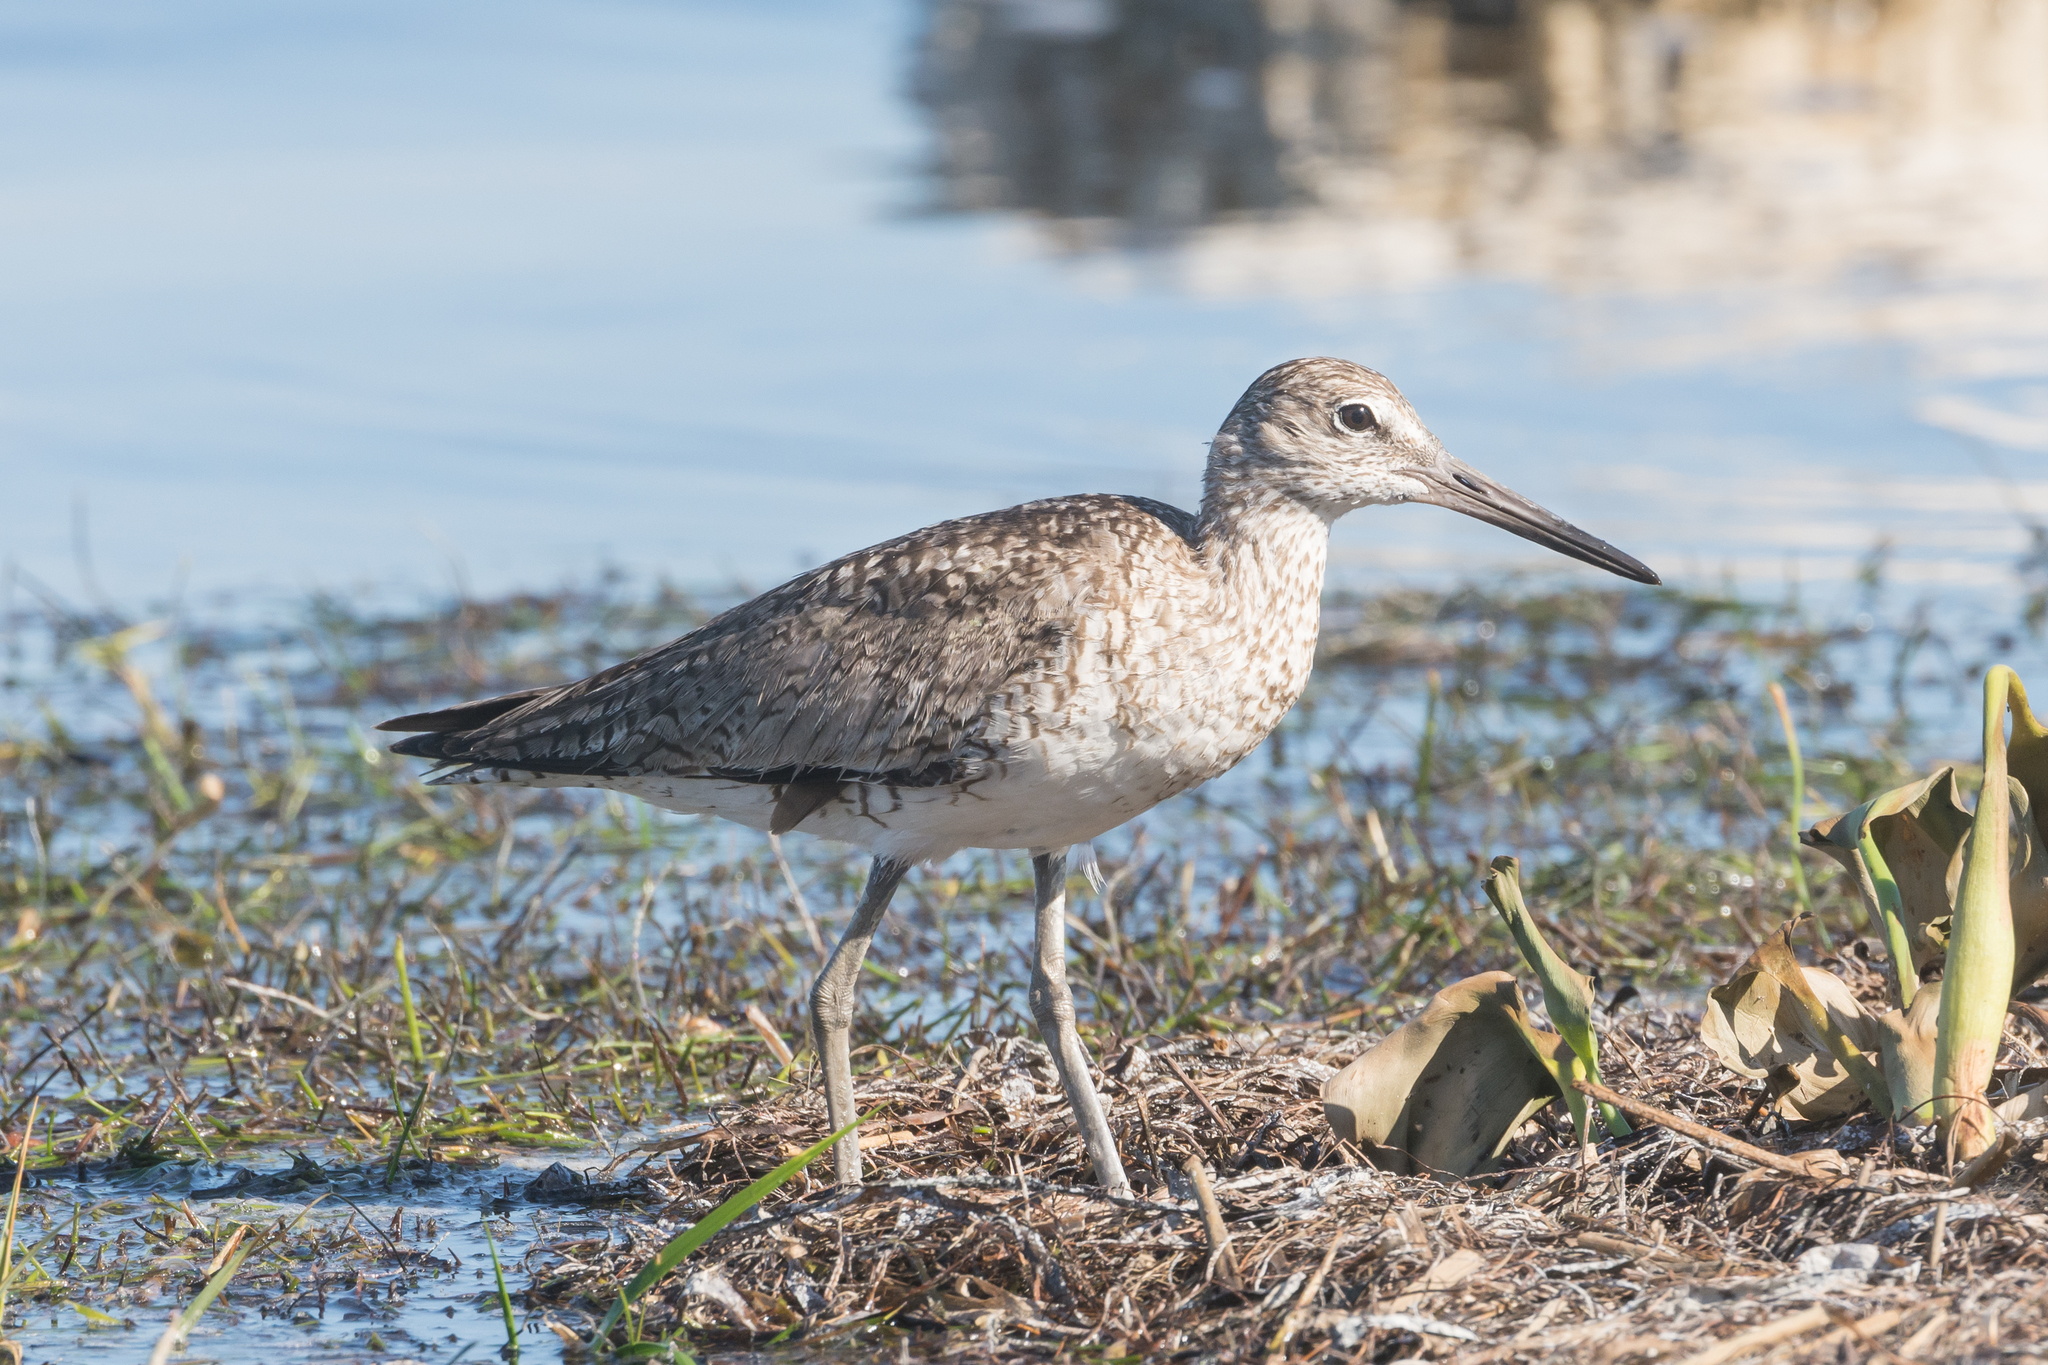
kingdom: Animalia
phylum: Chordata
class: Aves
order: Charadriiformes
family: Scolopacidae
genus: Tringa
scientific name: Tringa semipalmata
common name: Willet
